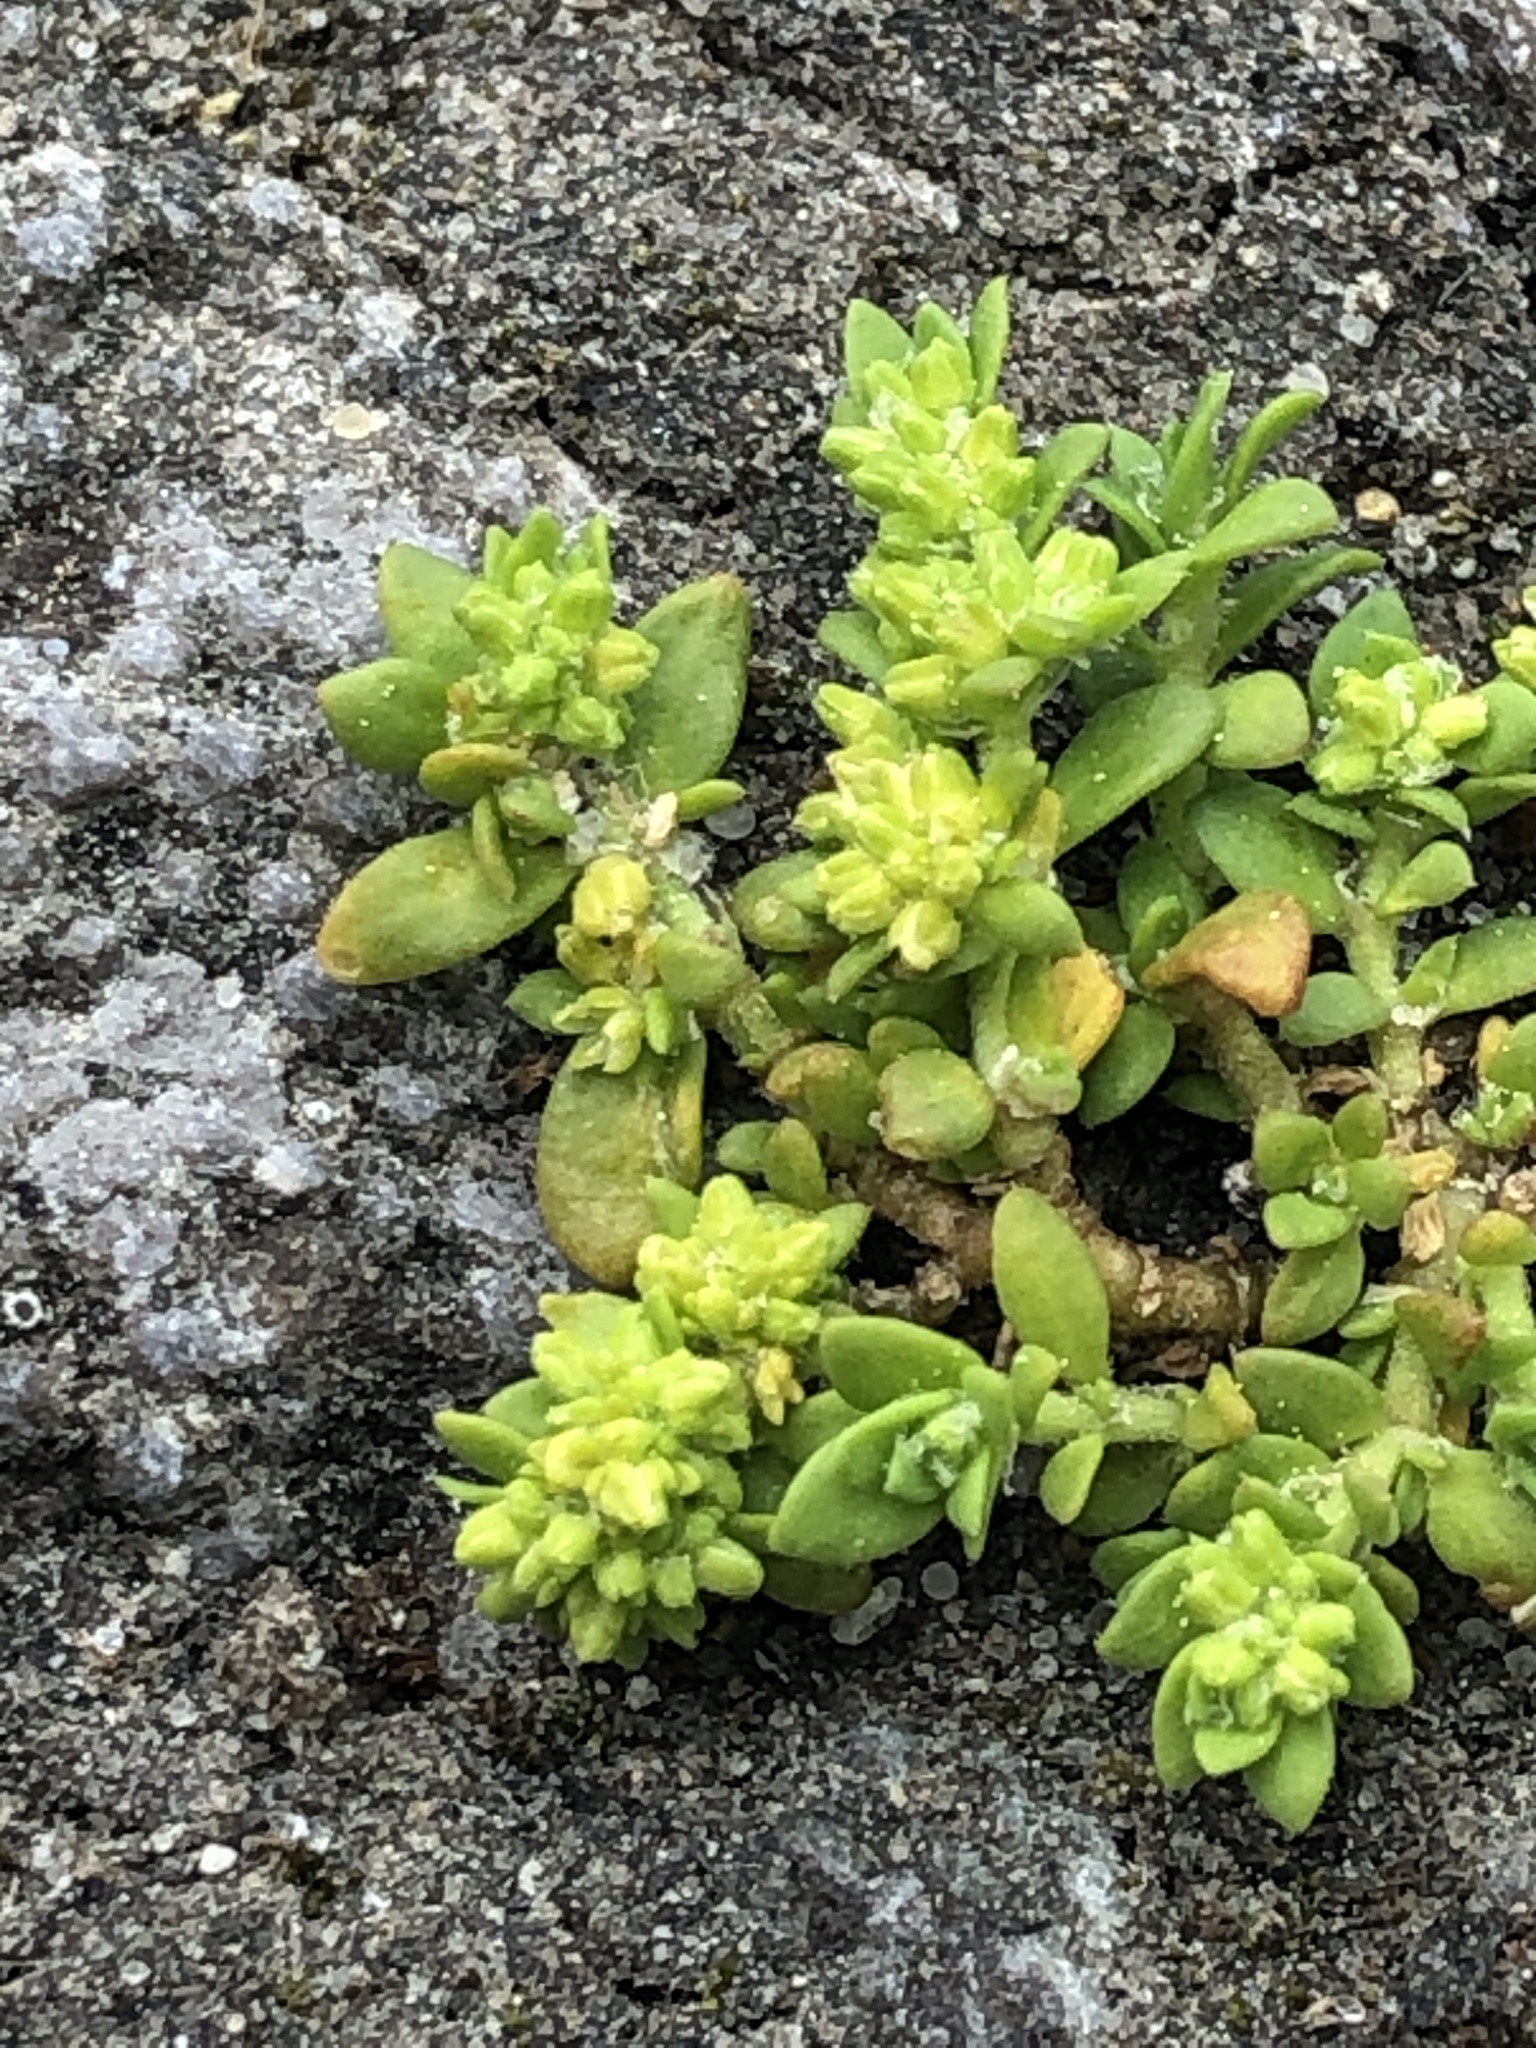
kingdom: Plantae
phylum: Tracheophyta
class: Magnoliopsida
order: Caryophyllales
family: Caryophyllaceae
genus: Herniaria
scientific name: Herniaria glabra
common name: Smooth rupturewort
